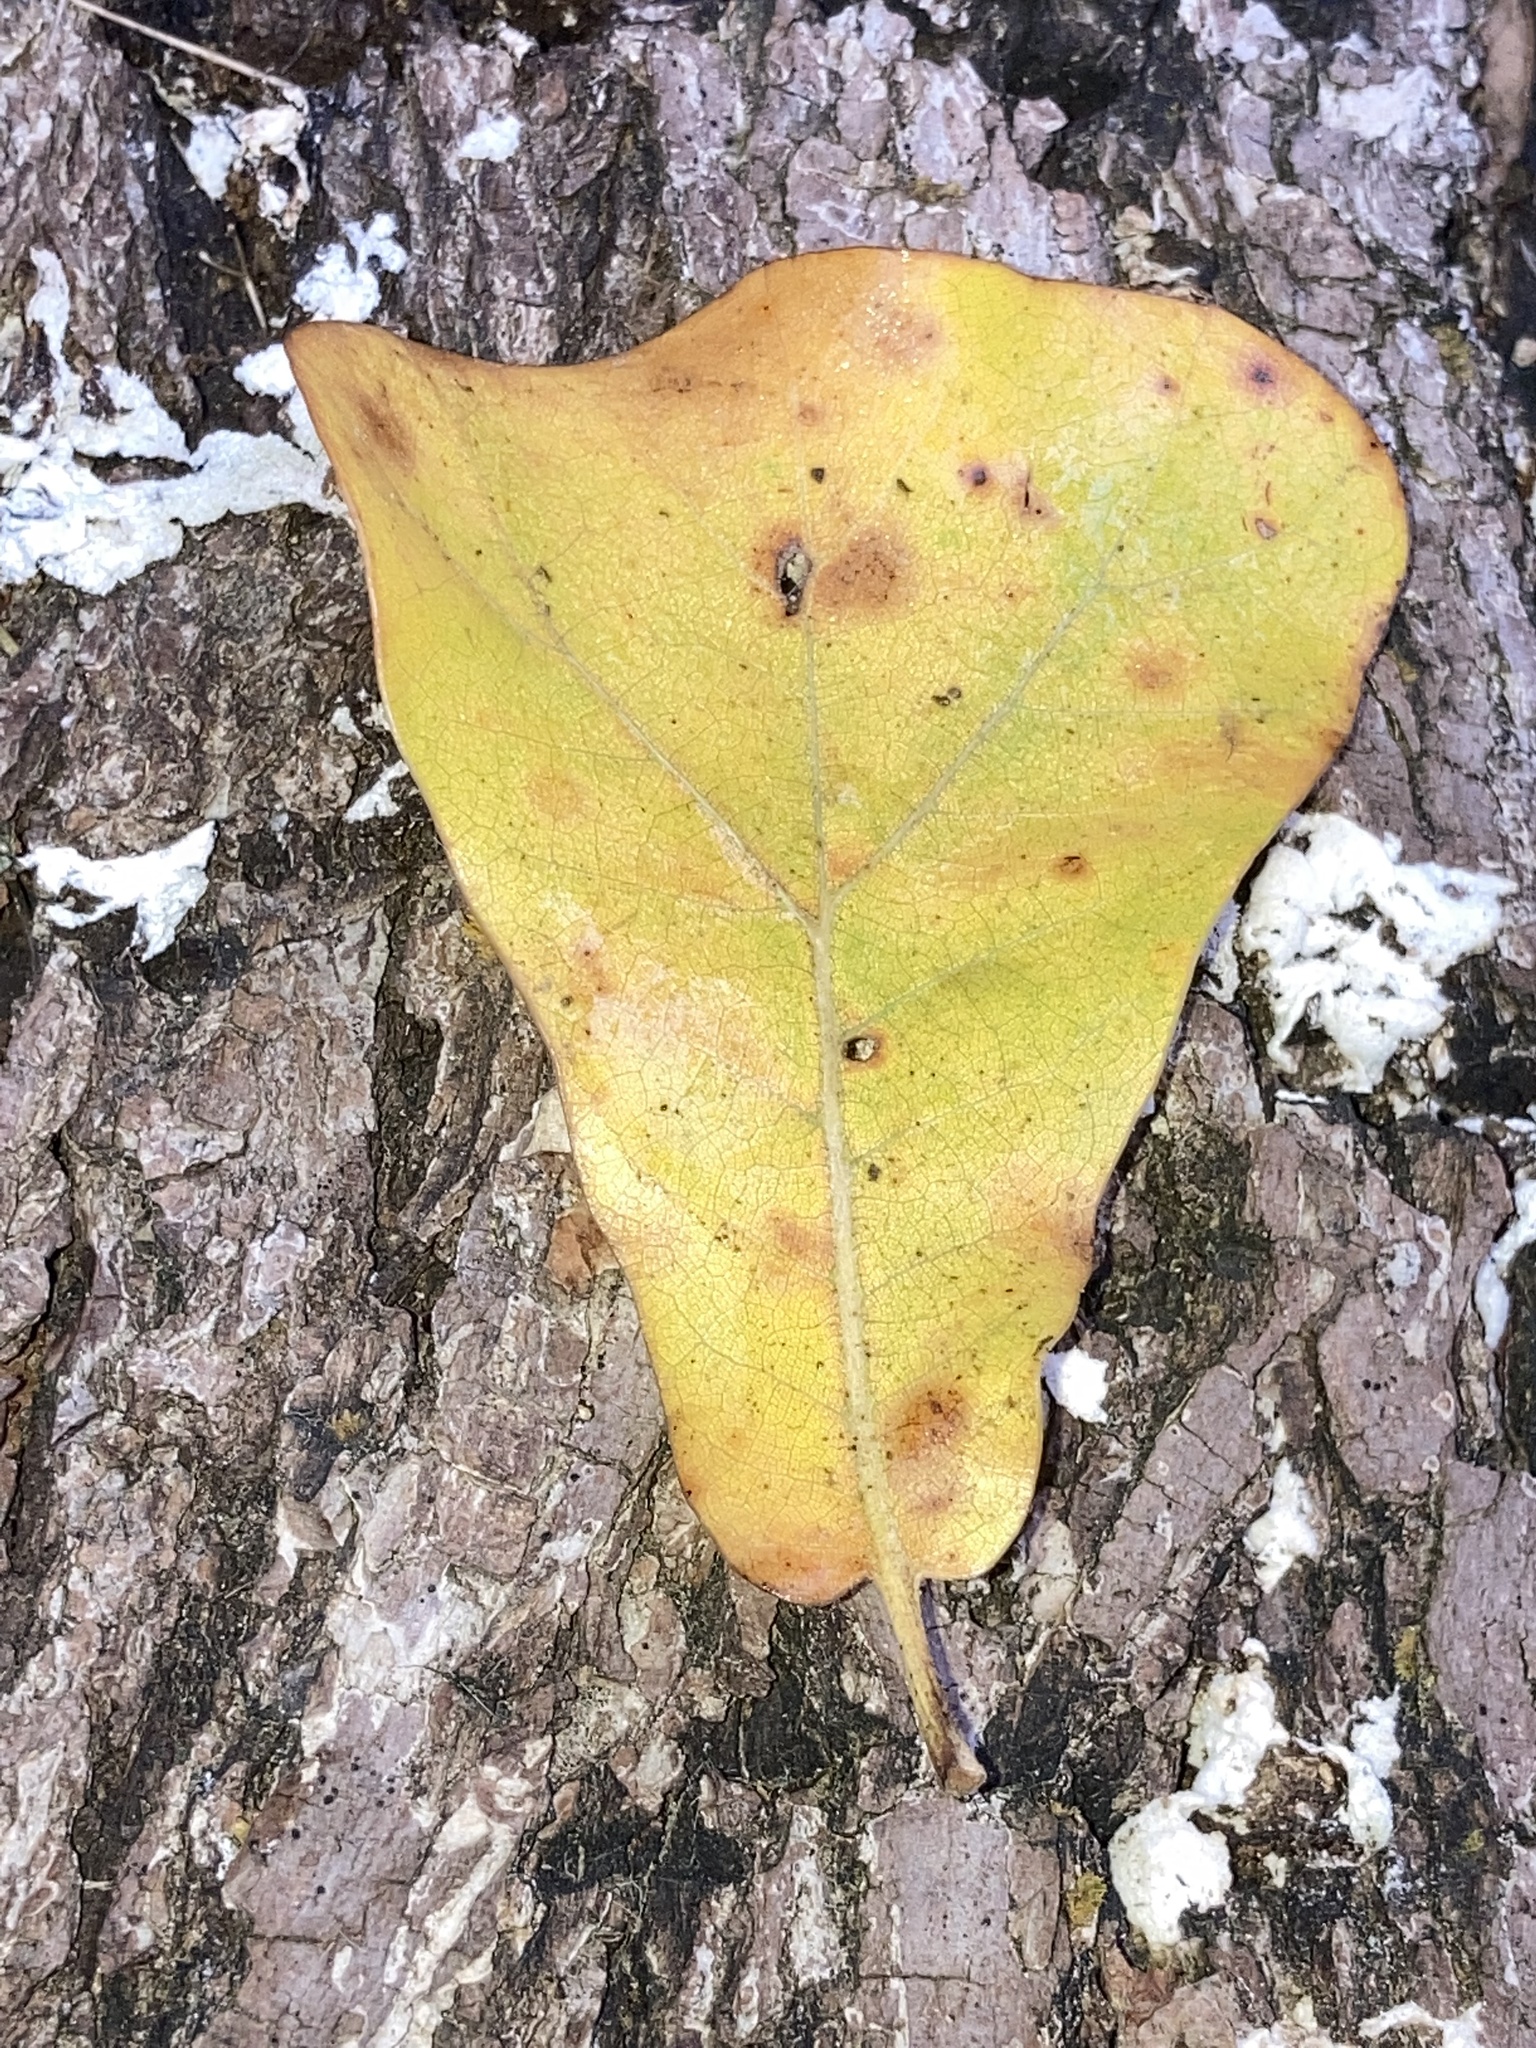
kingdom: Plantae
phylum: Tracheophyta
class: Magnoliopsida
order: Fagales
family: Fagaceae
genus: Quercus
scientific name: Quercus marilandica
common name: Blackjack oak
